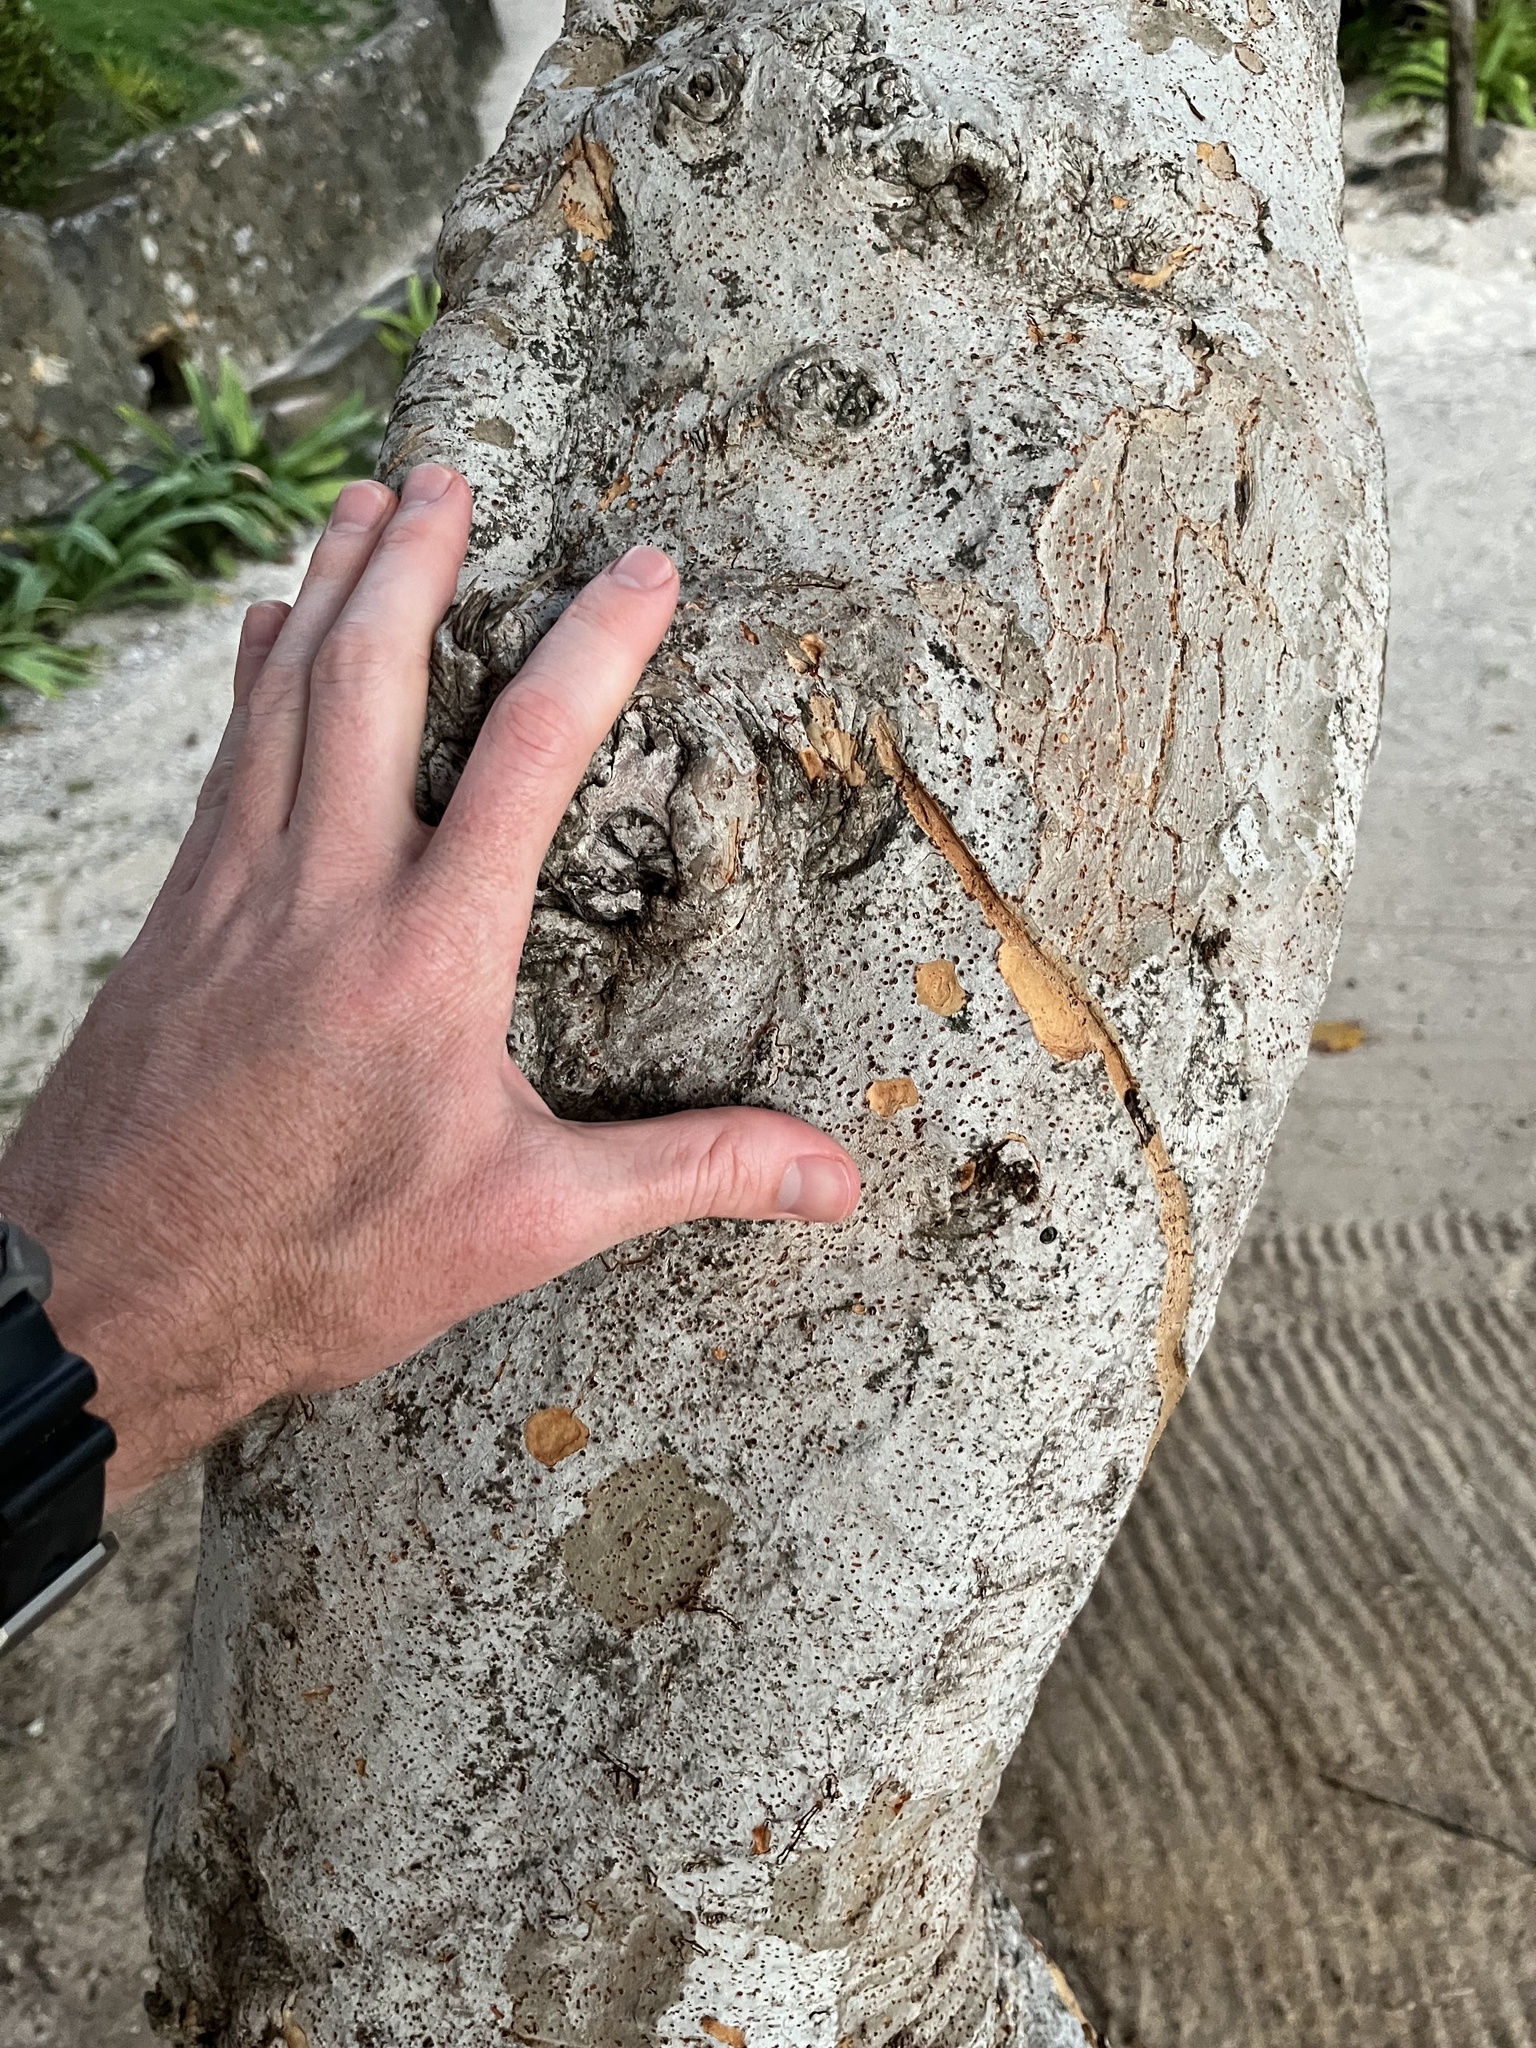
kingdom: Plantae
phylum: Tracheophyta
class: Magnoliopsida
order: Caryophyllales
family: Polygonaceae
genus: Coccoloba
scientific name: Coccoloba uvifera
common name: Seagrape
